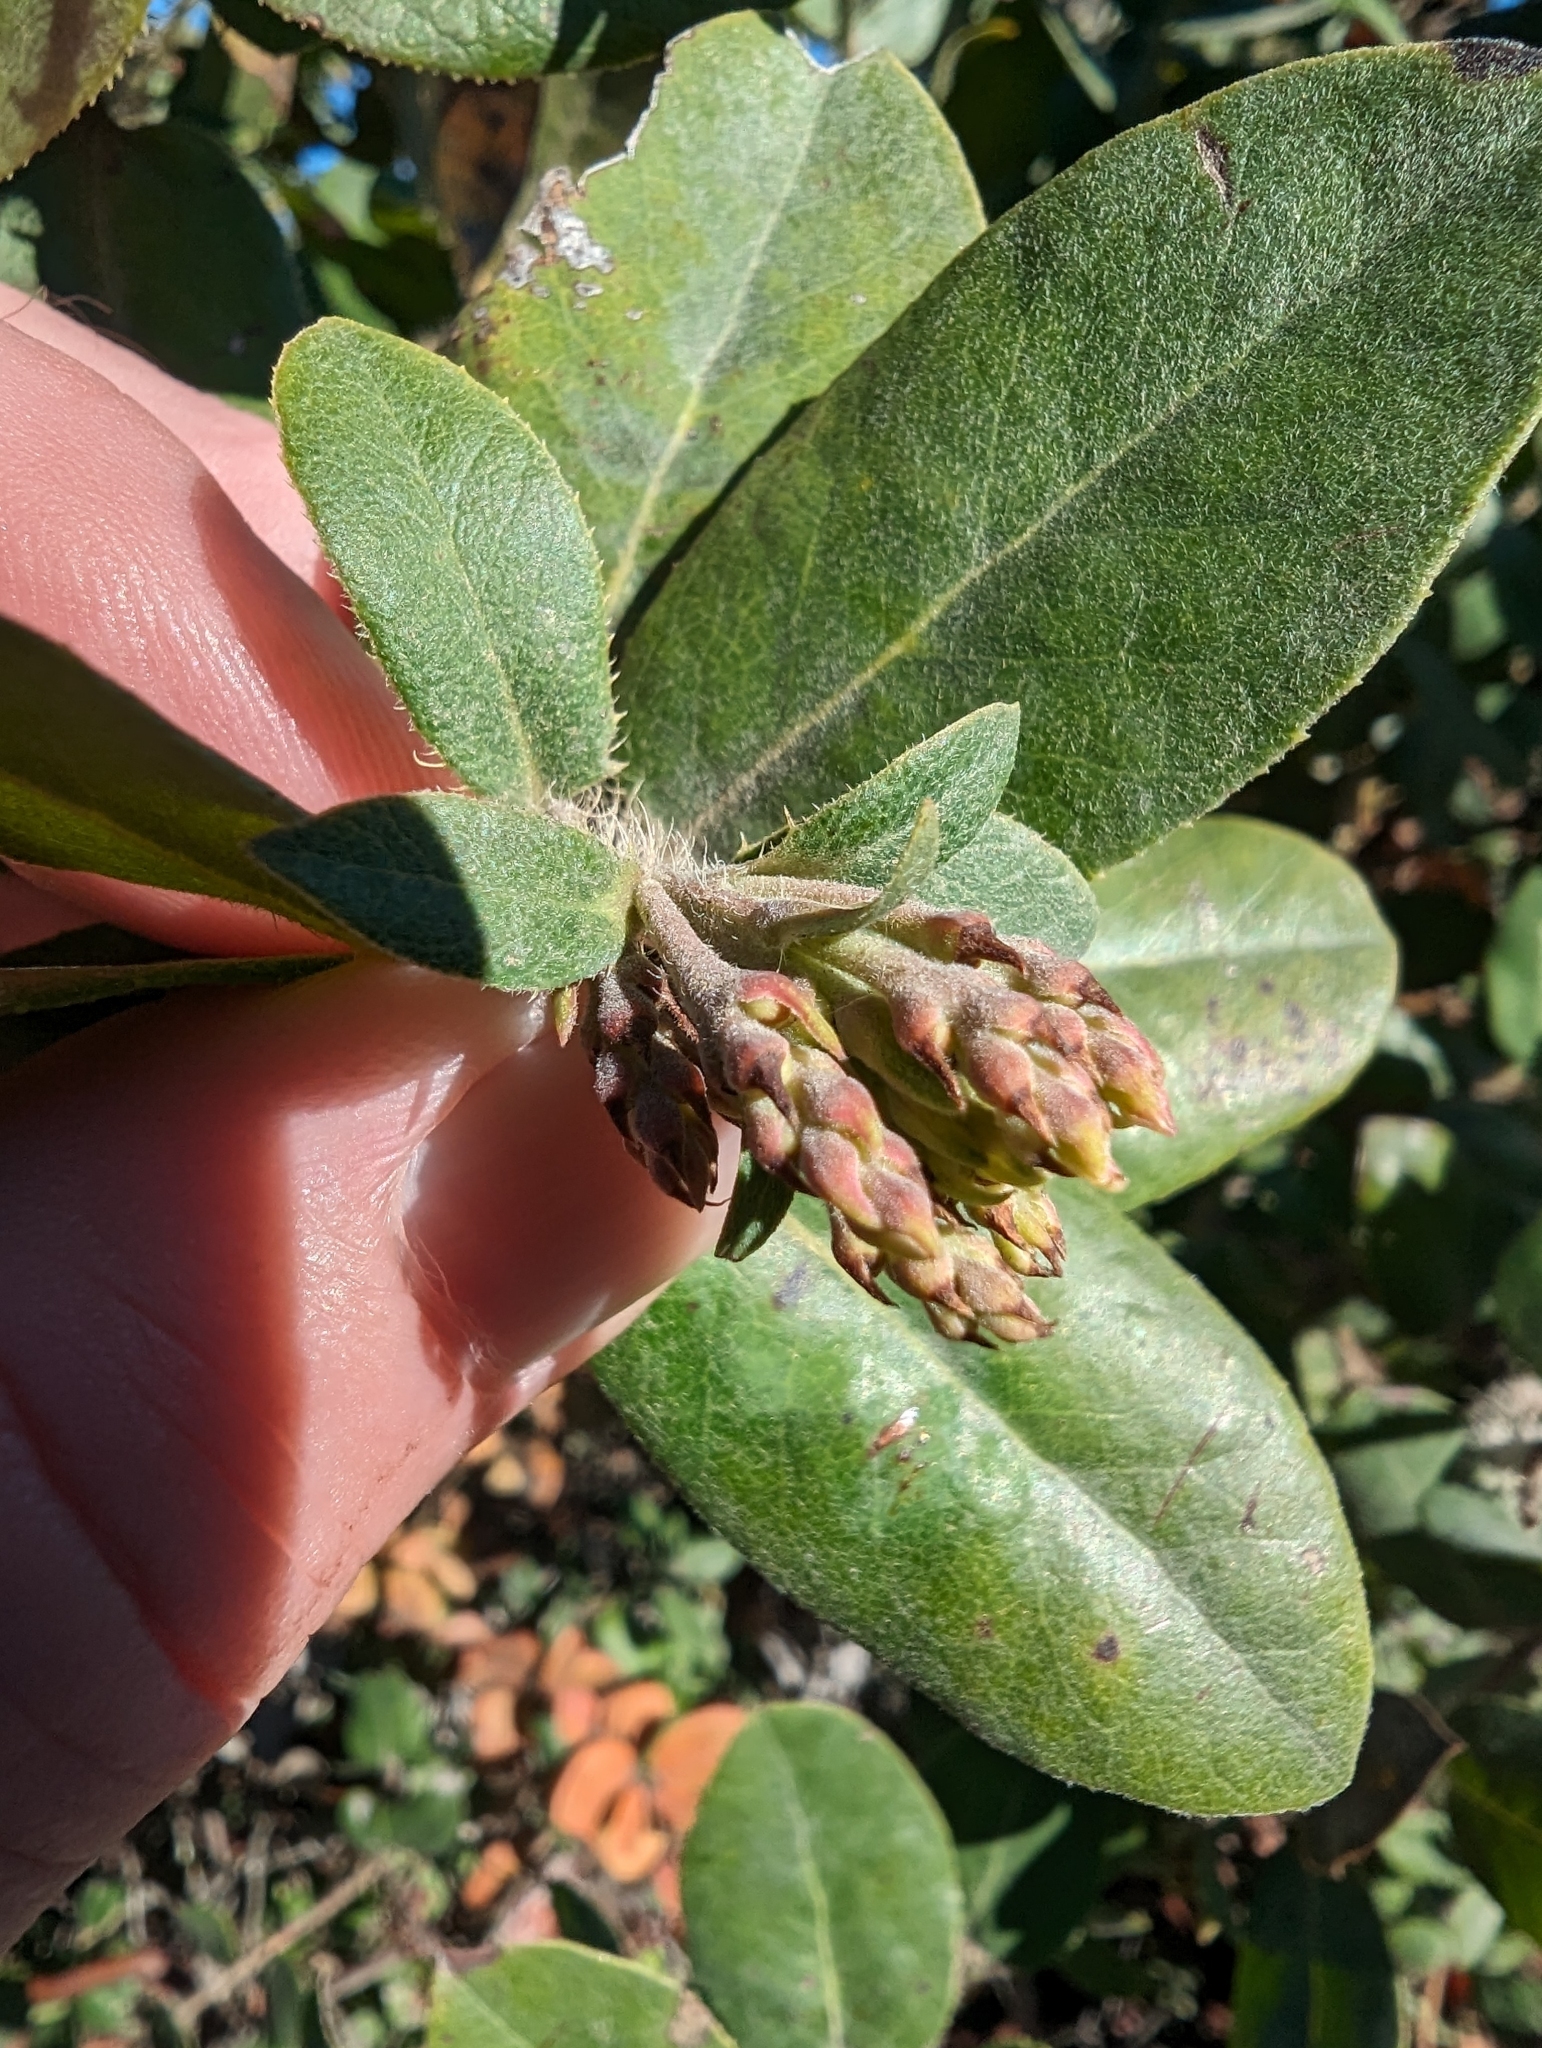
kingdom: Plantae
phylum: Tracheophyta
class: Magnoliopsida
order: Ericales
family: Ericaceae
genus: Arctostaphylos
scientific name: Arctostaphylos crustacea
